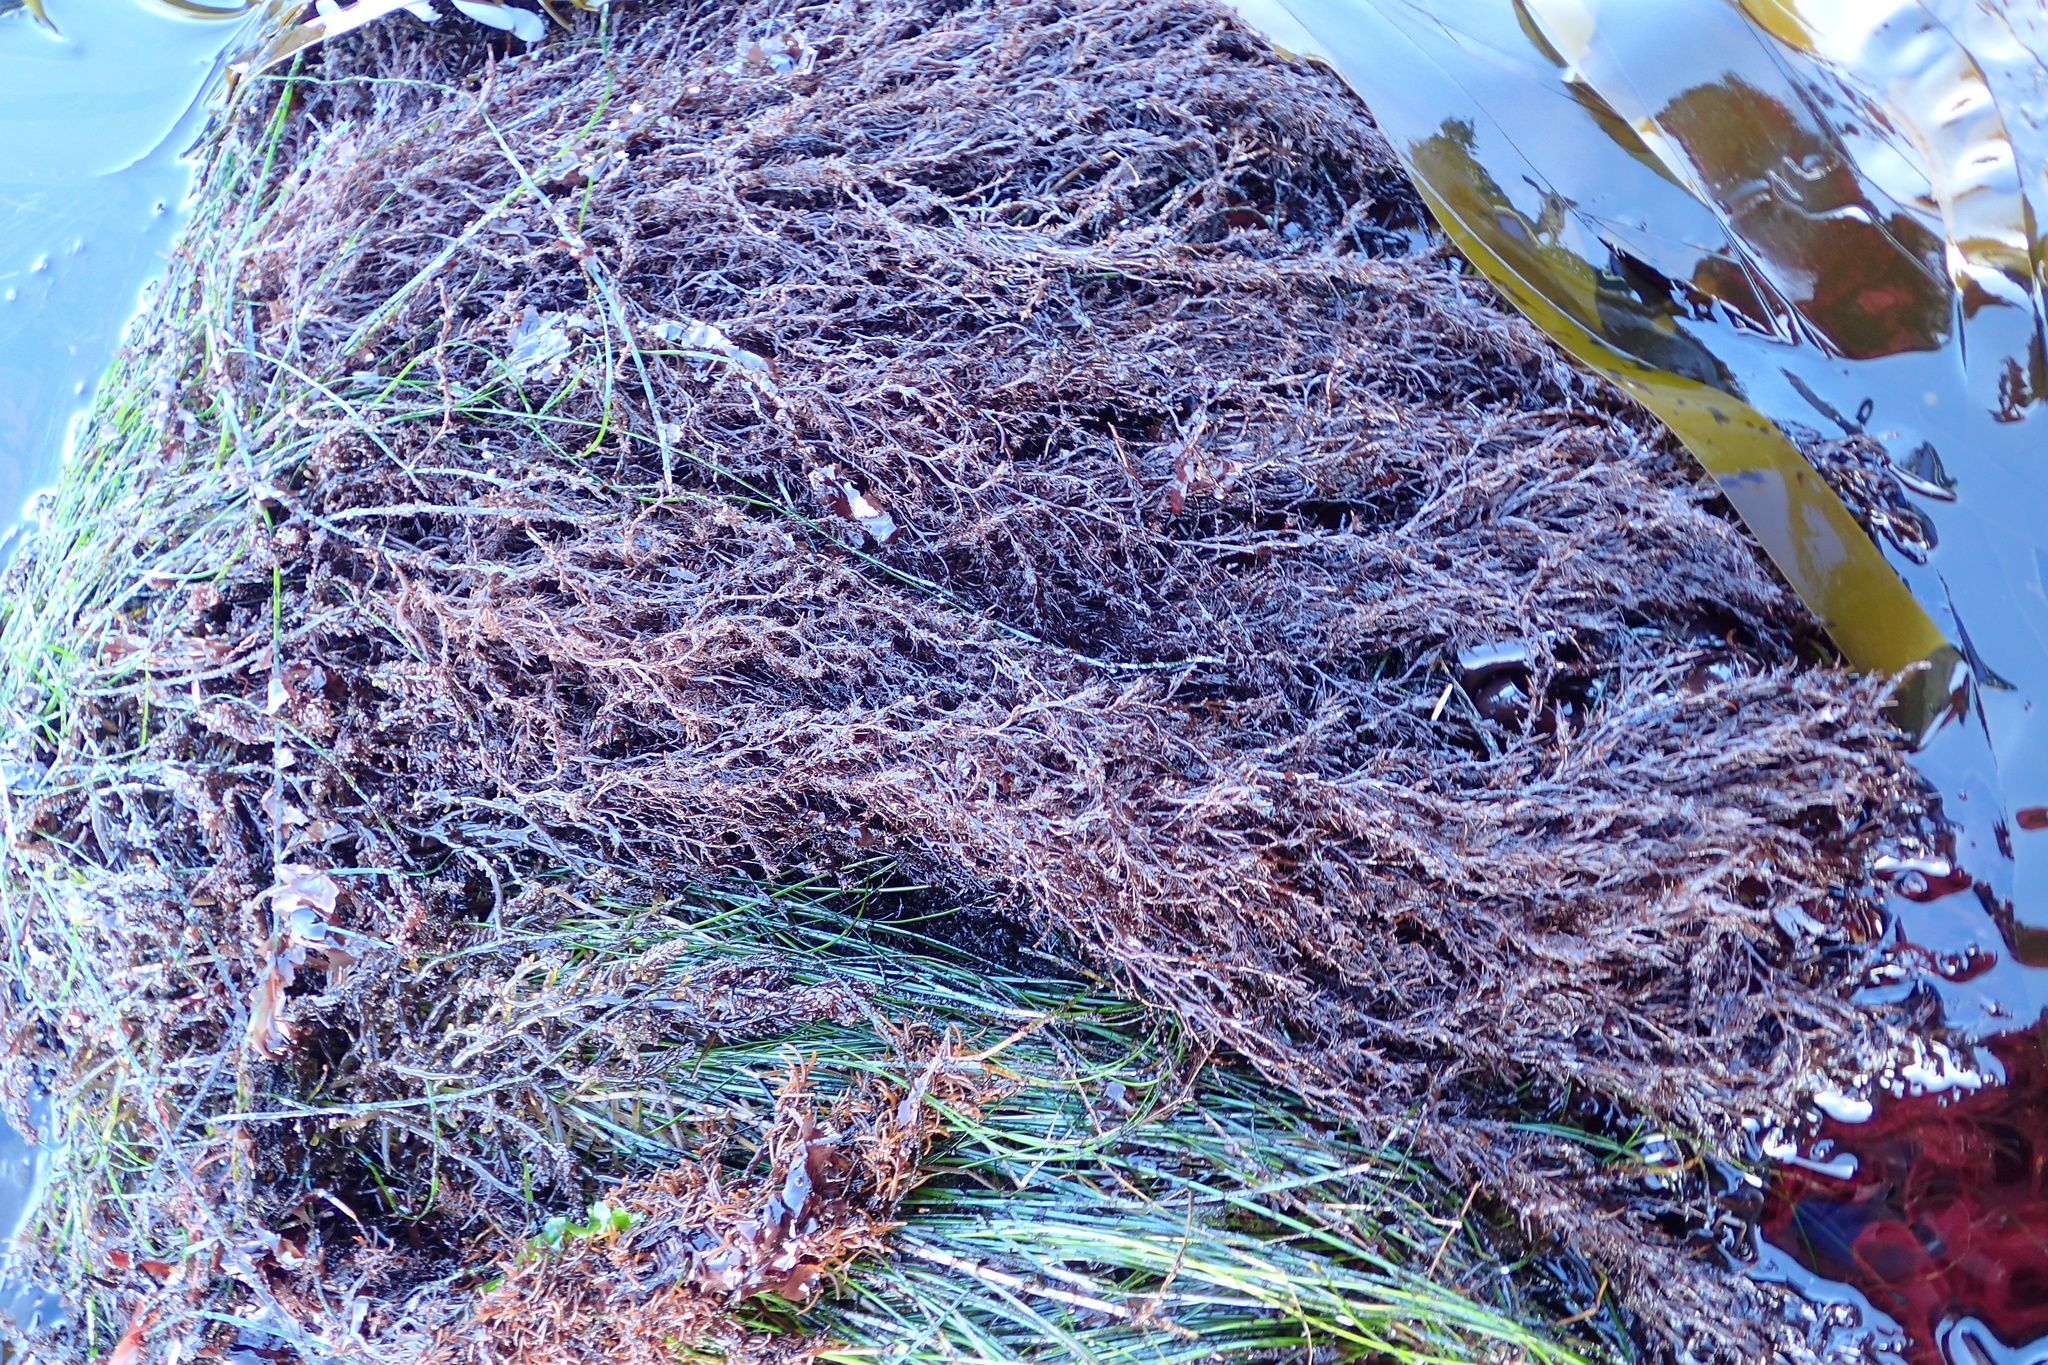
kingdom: Plantae
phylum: Rhodophyta
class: Florideophyceae
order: Ceramiales
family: Rhodomelaceae
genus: Odonthalia
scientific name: Odonthalia floccosa
